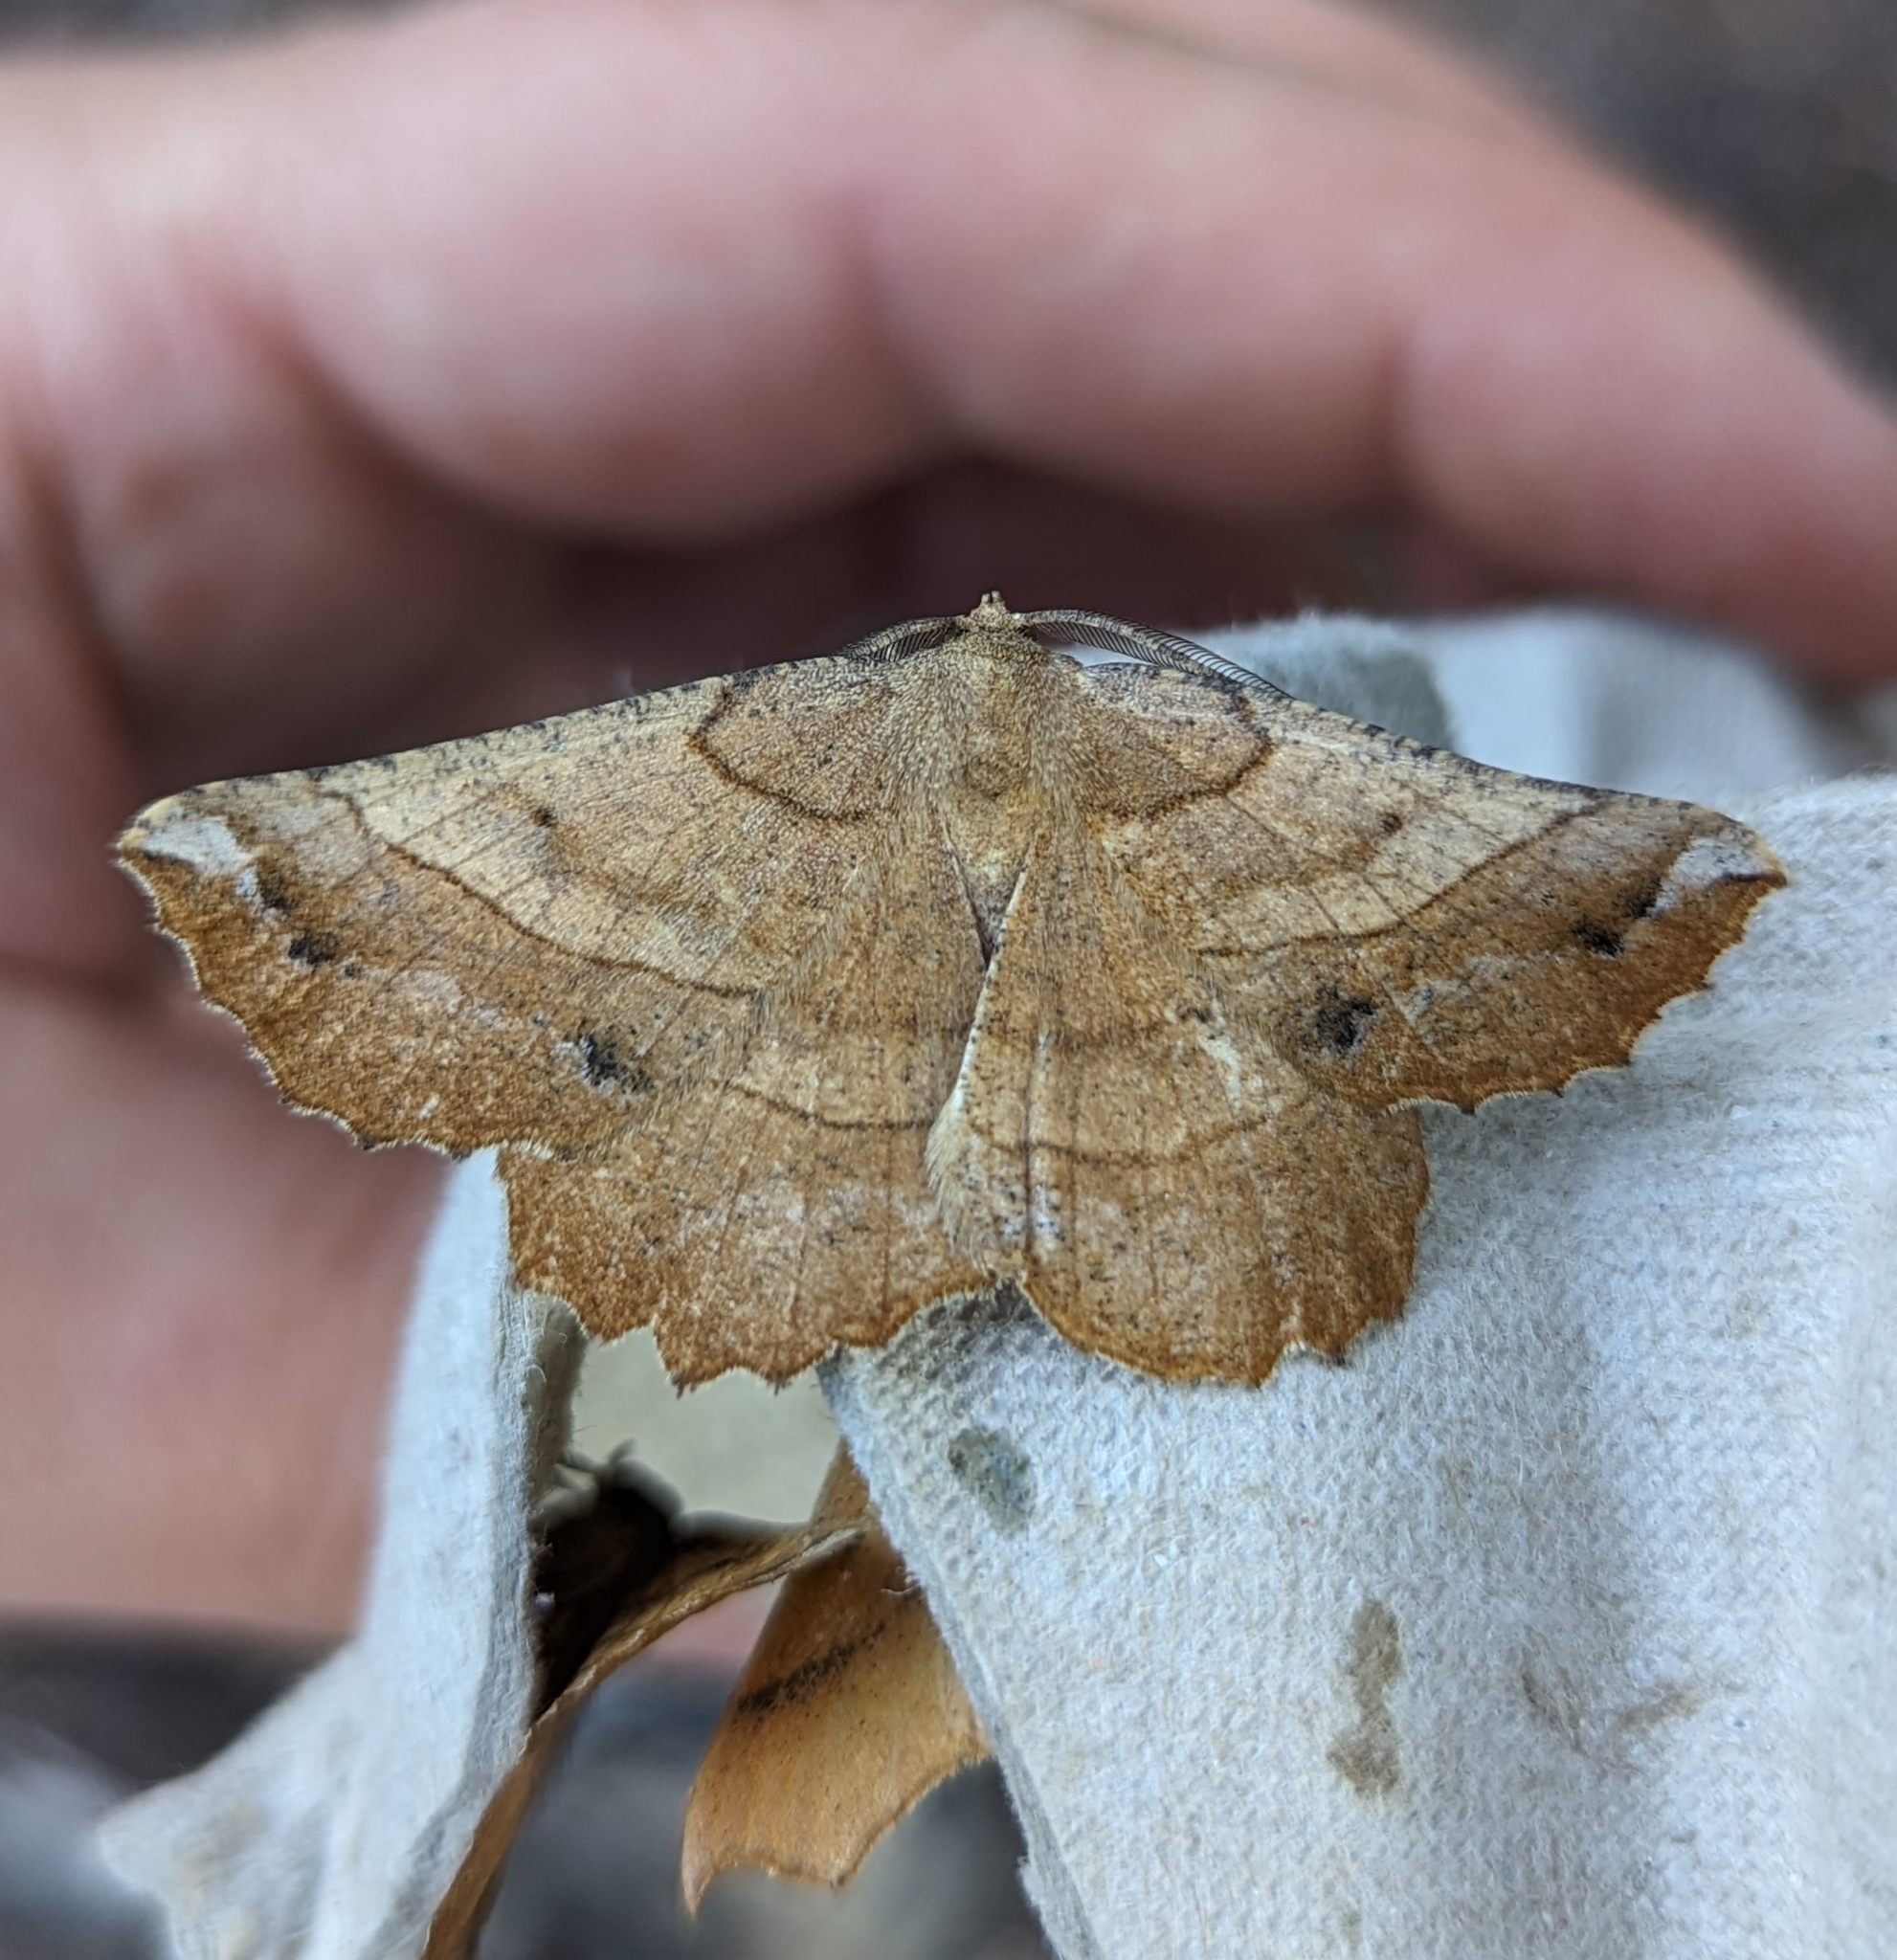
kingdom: Animalia
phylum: Arthropoda
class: Insecta
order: Lepidoptera
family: Geometridae
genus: Euchlaena
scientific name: Euchlaena johnsonaria
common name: Johnson's euchlaena
